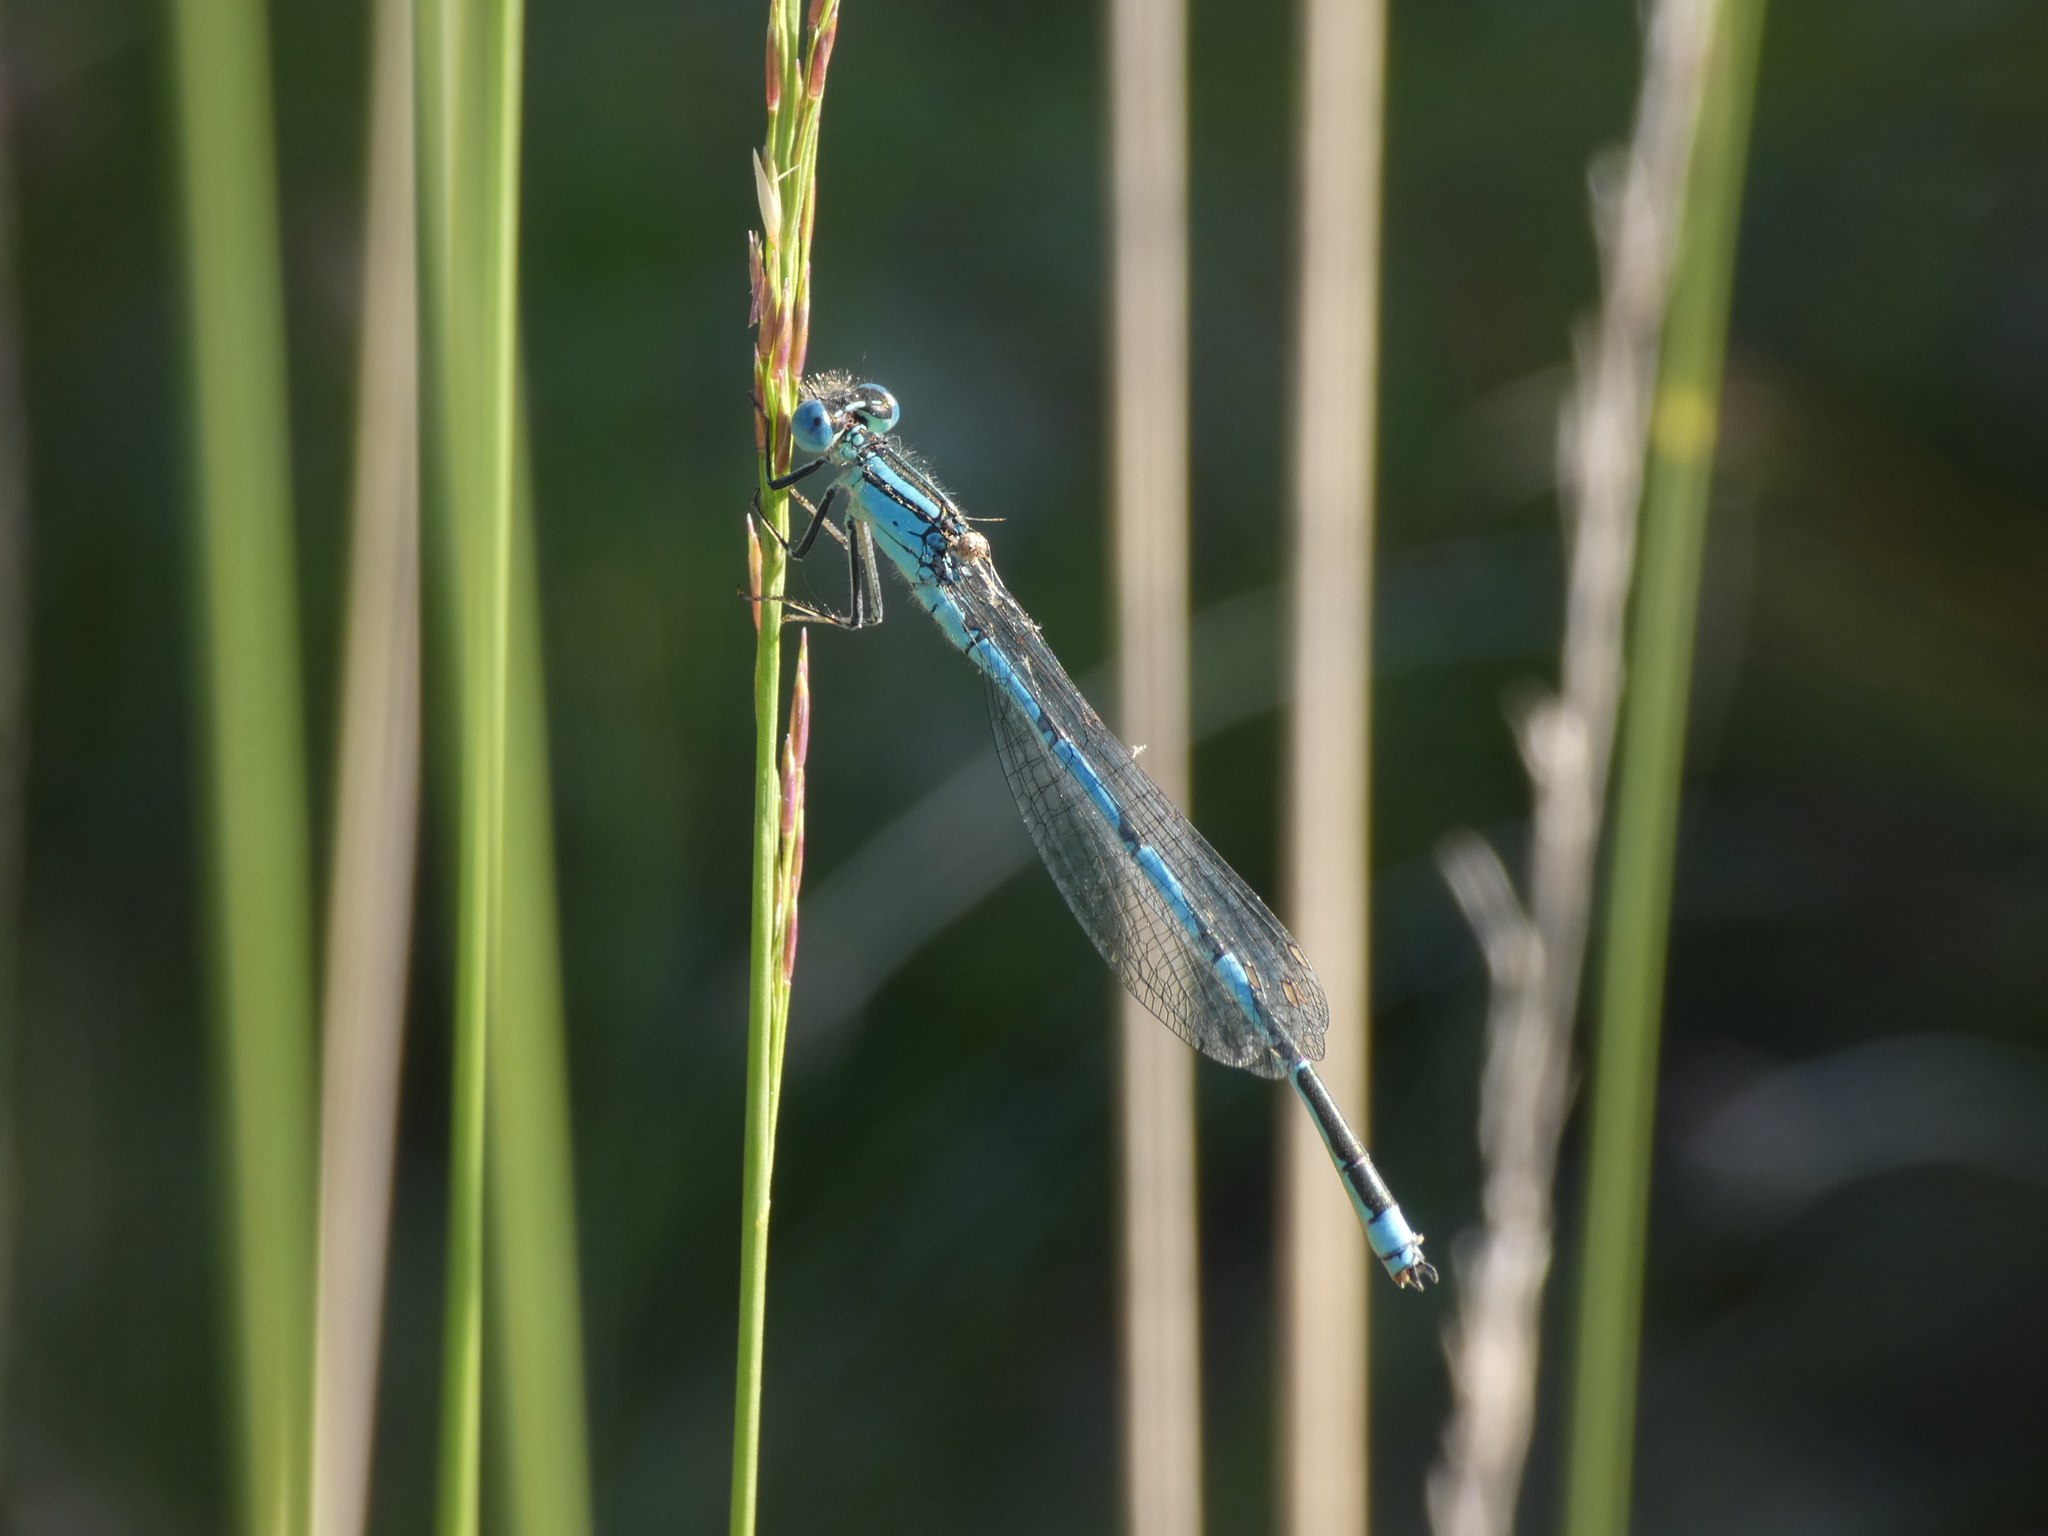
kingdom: Animalia
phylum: Arthropoda
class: Insecta
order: Odonata
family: Coenagrionidae
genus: Erythromma
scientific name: Erythromma lindenii
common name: Blue-eye
